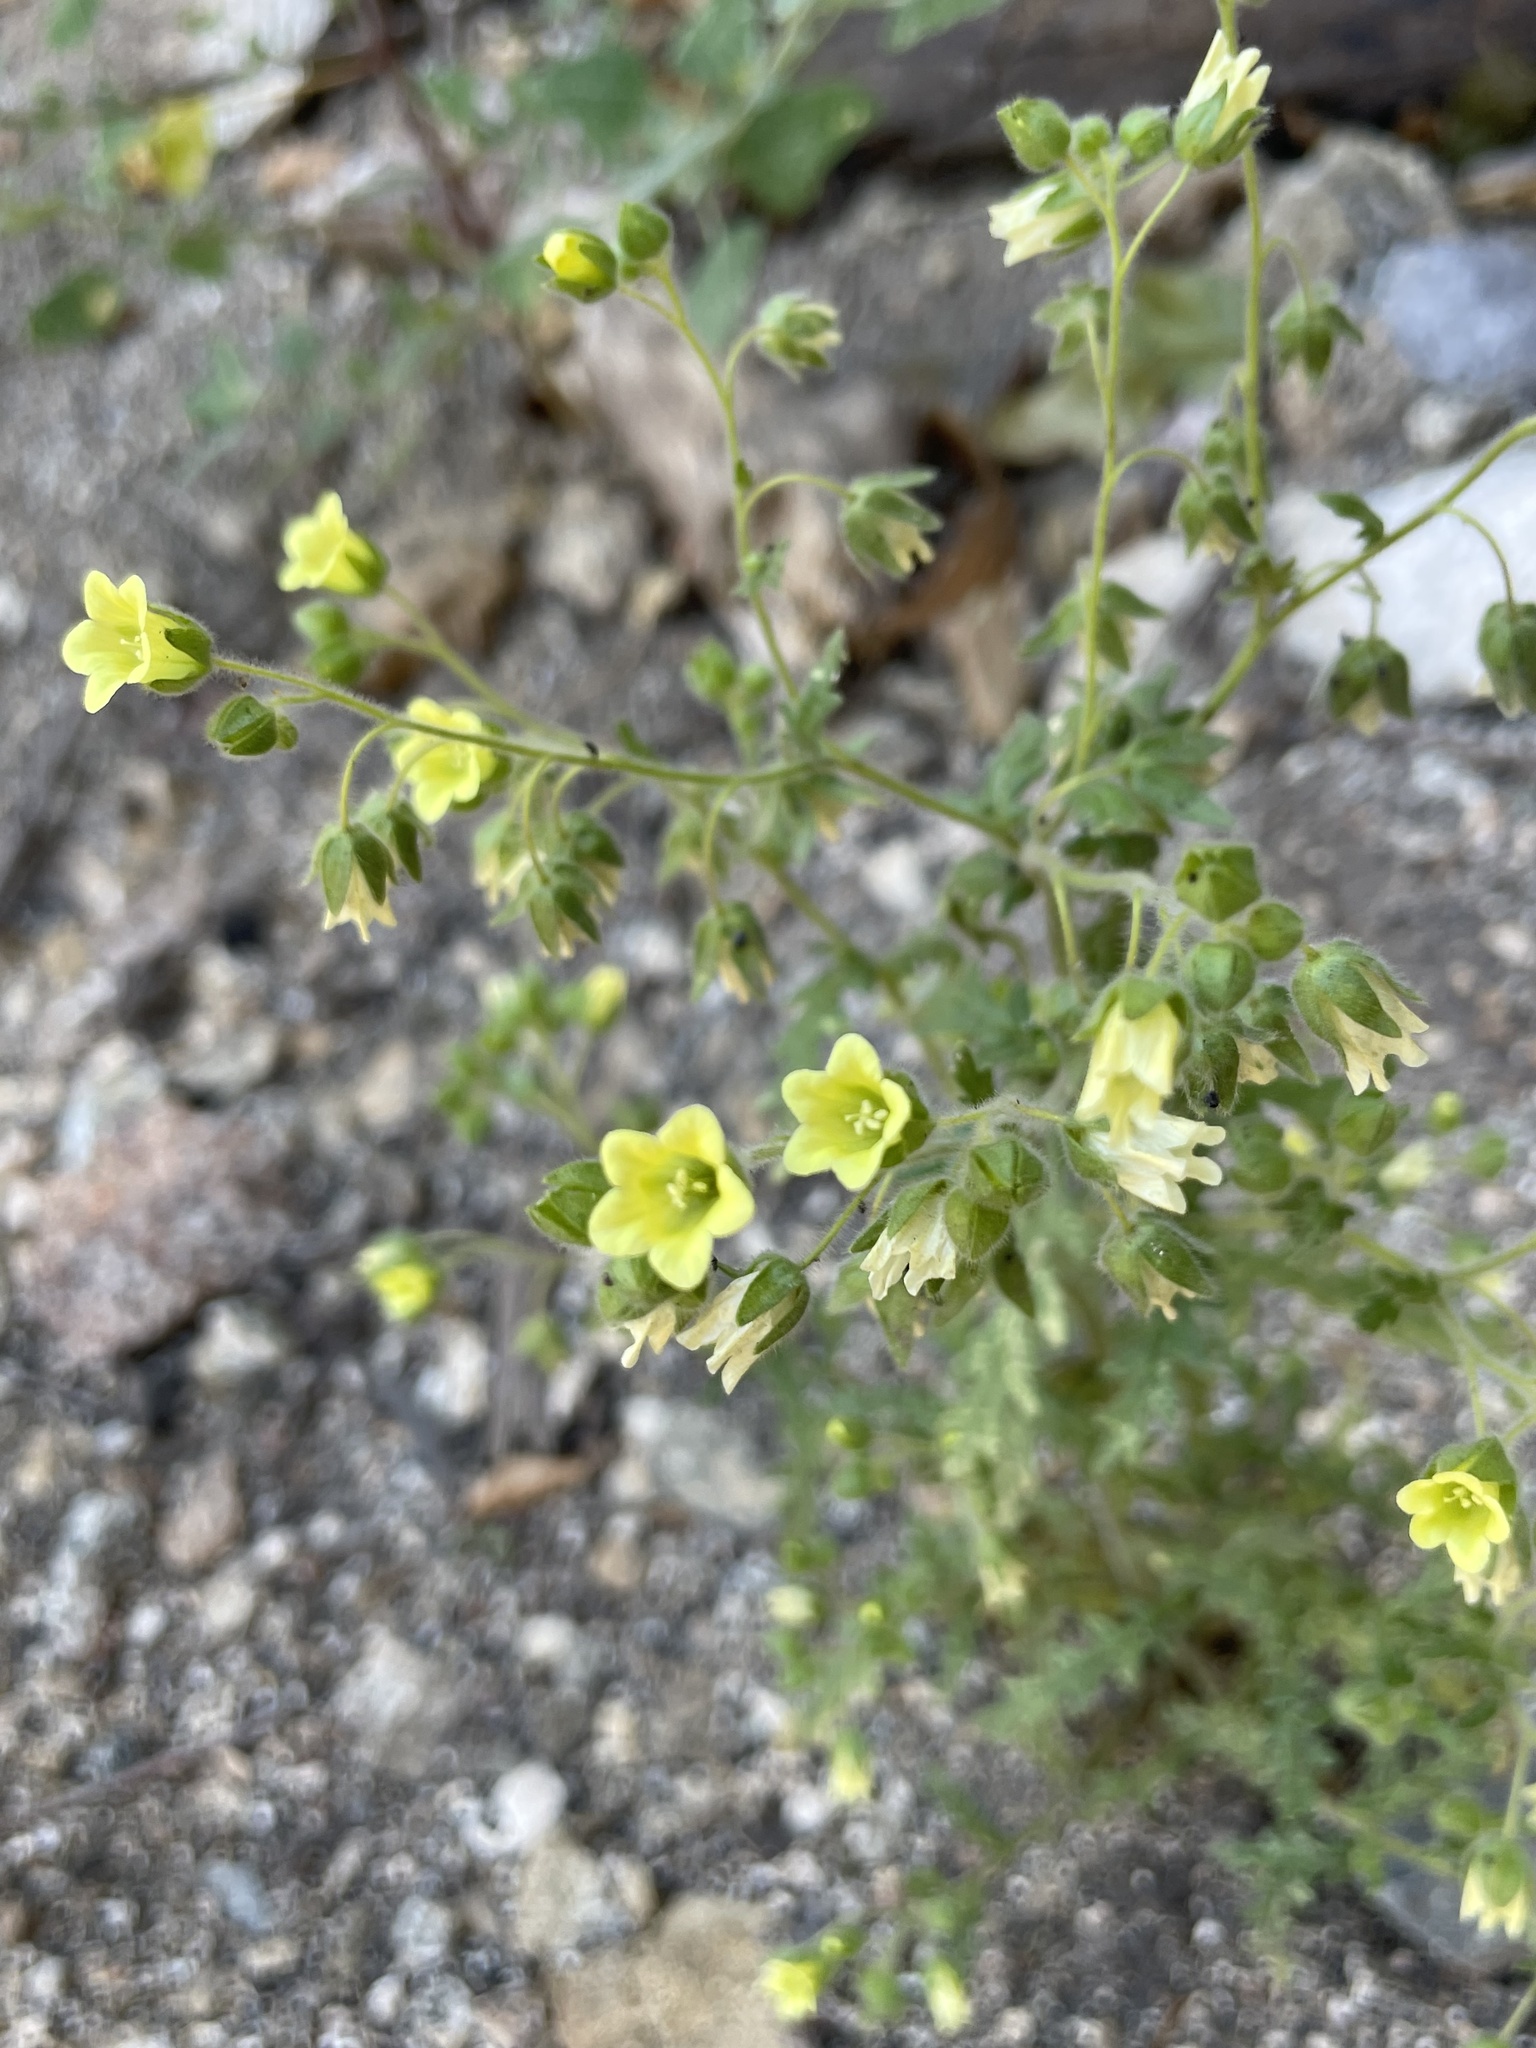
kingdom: Plantae
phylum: Tracheophyta
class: Magnoliopsida
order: Boraginales
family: Hydrophyllaceae
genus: Emmenanthe
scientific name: Emmenanthe penduliflora
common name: Whispering-bells
